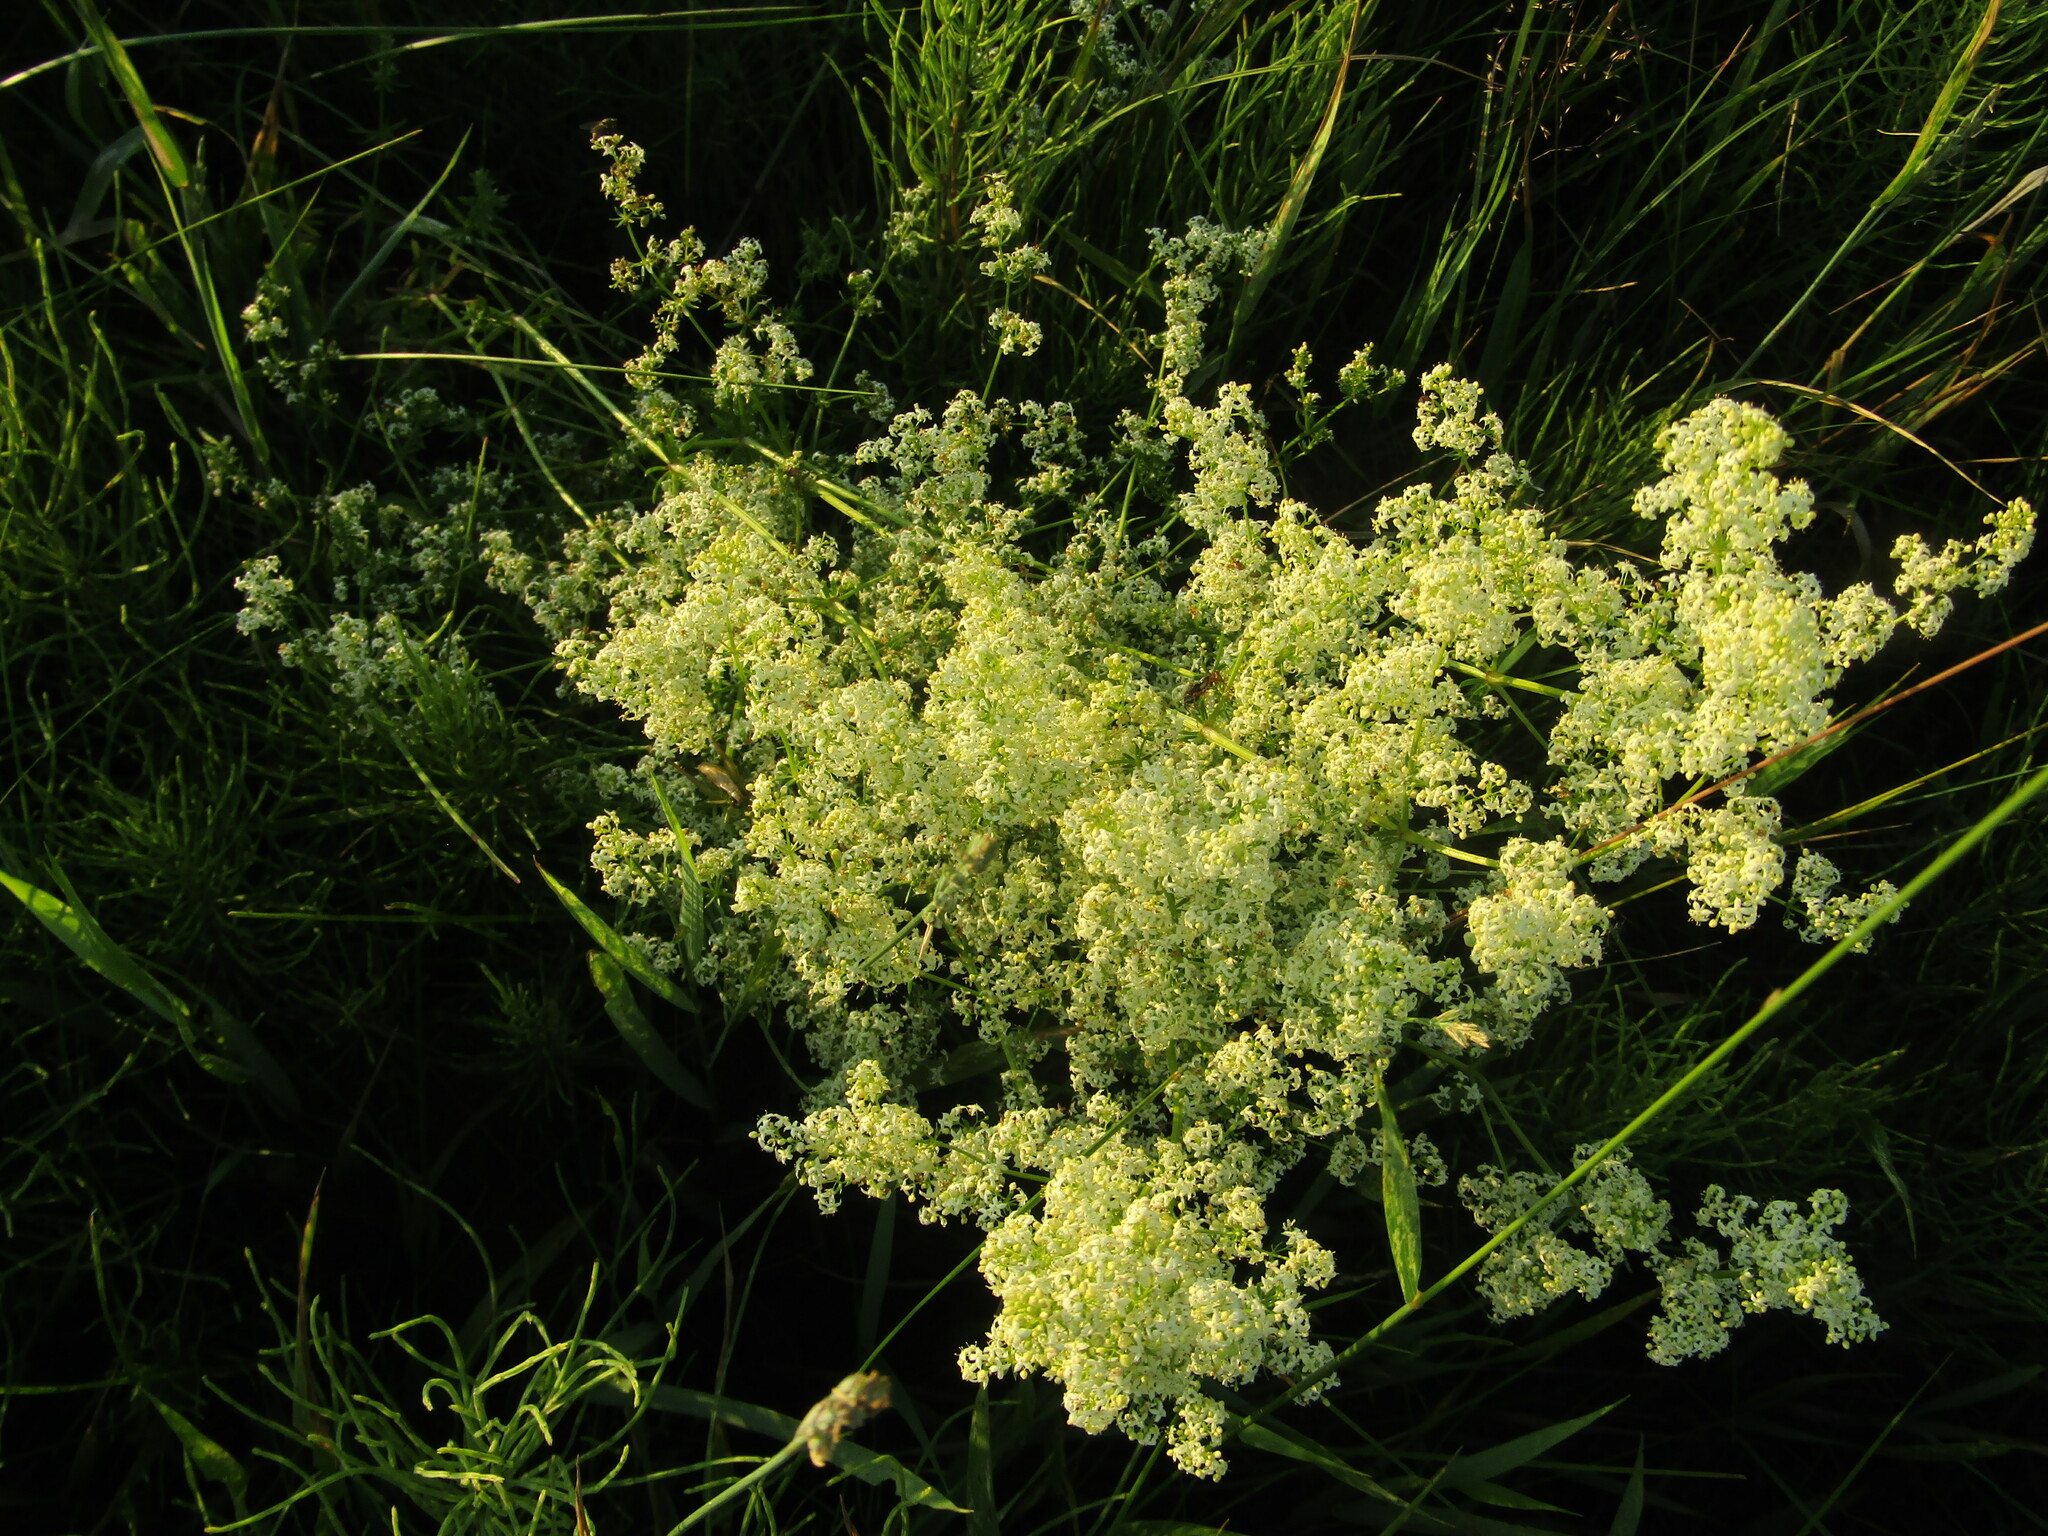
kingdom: Plantae
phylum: Tracheophyta
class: Magnoliopsida
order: Gentianales
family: Rubiaceae
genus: Galium
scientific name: Galium mollugo
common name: Hedge bedstraw
